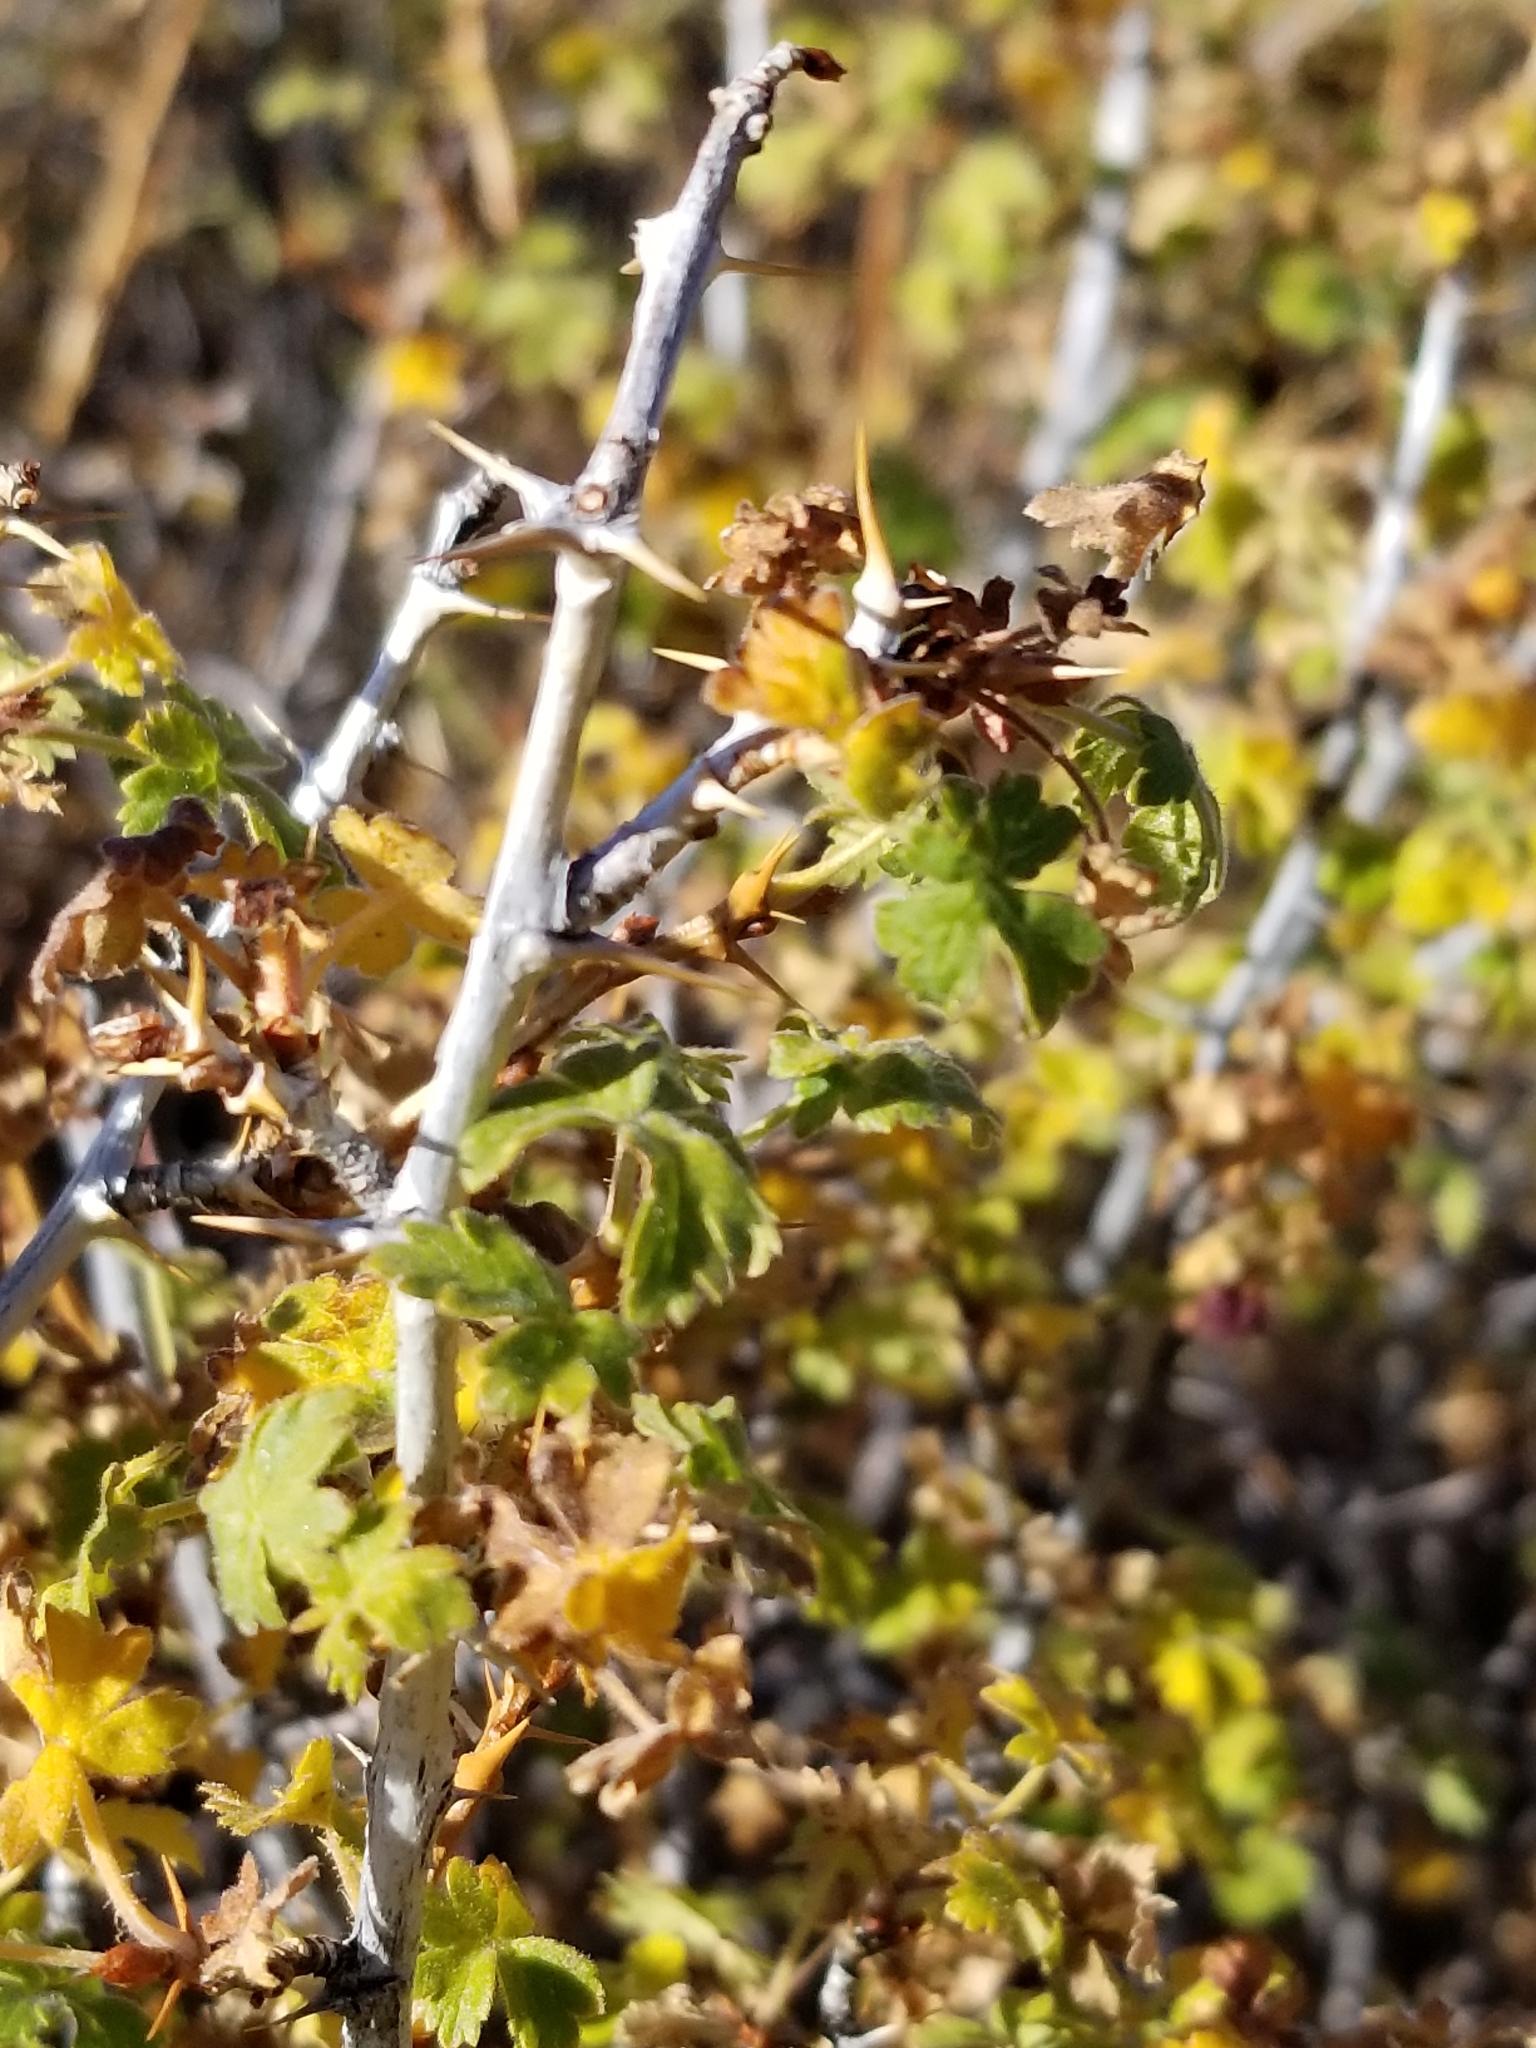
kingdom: Plantae
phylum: Tracheophyta
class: Magnoliopsida
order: Saxifragales
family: Grossulariaceae
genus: Ribes
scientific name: Ribes montigenum
